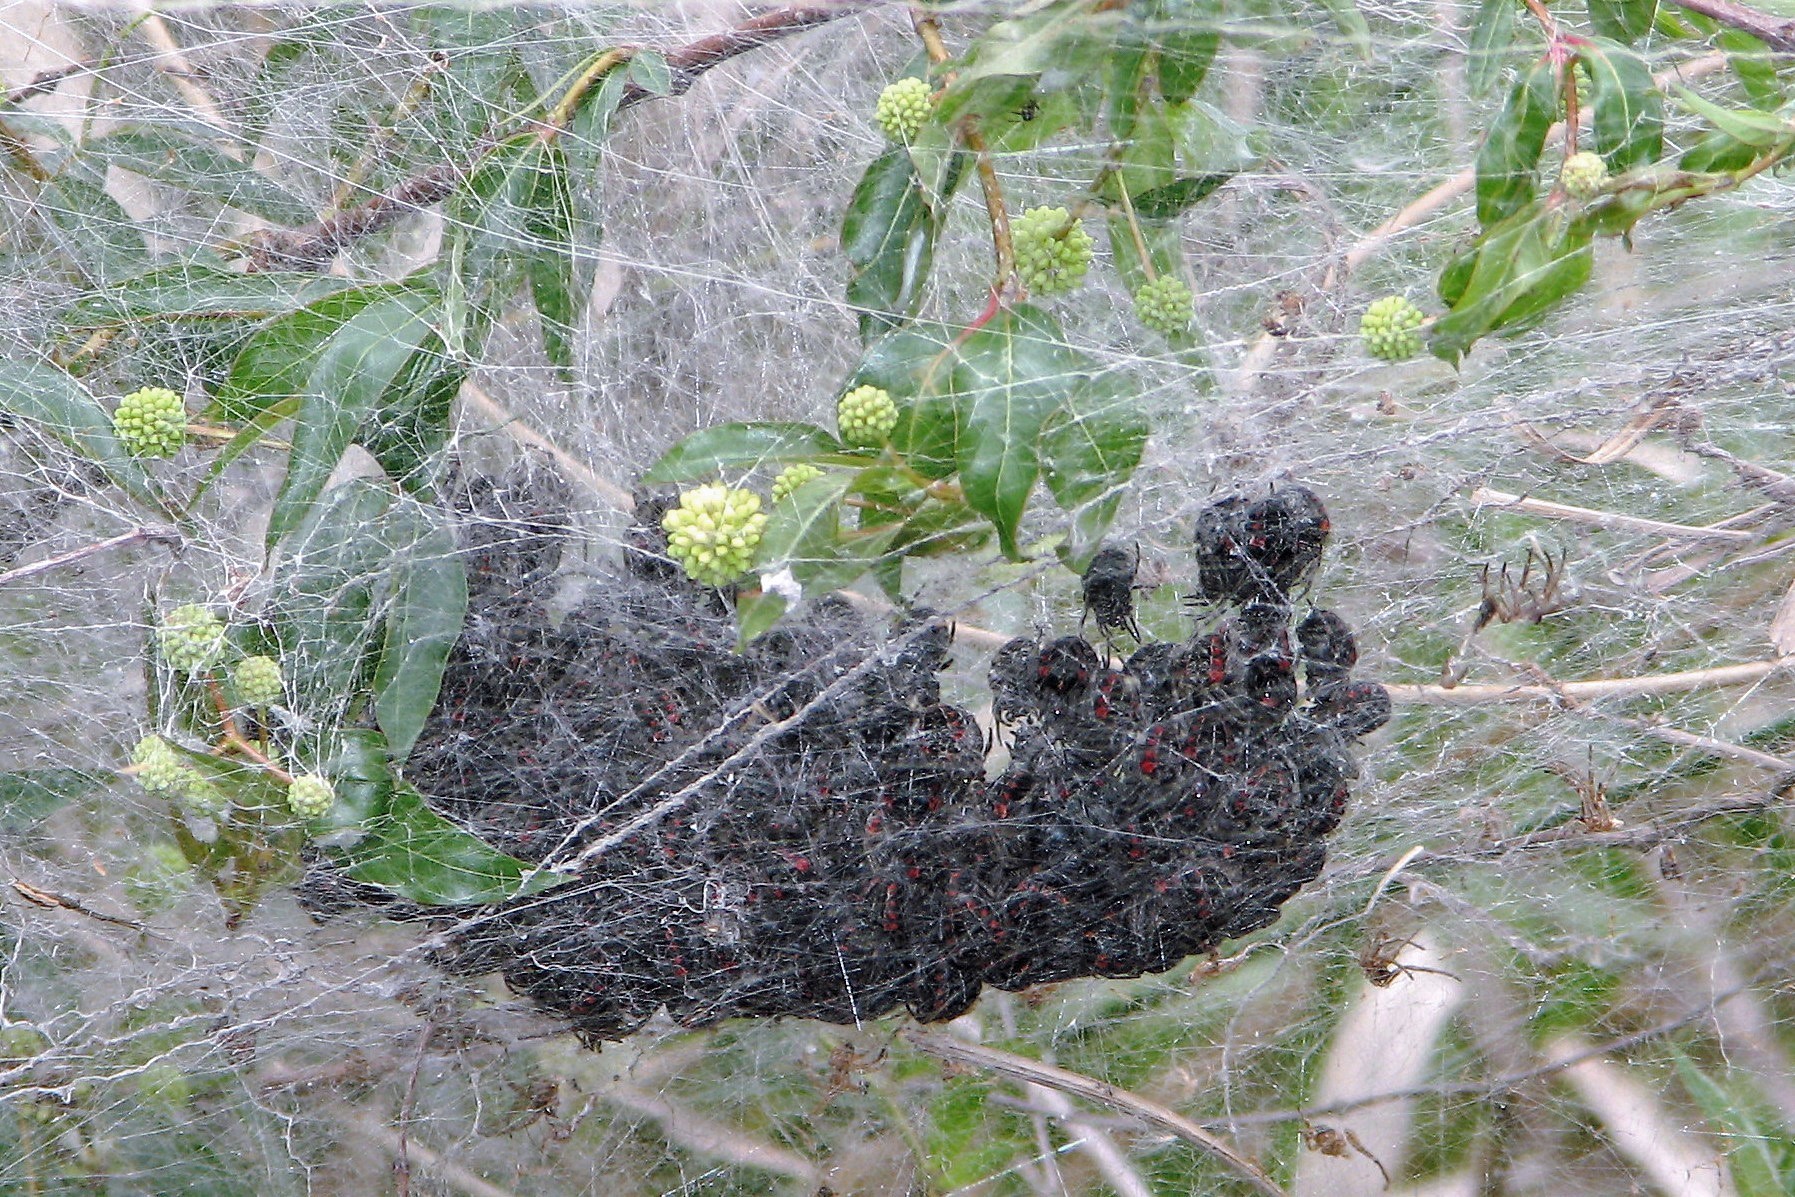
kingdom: Animalia
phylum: Arthropoda
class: Arachnida
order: Araneae
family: Araneidae
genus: Parawixia
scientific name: Parawixia bistriata
